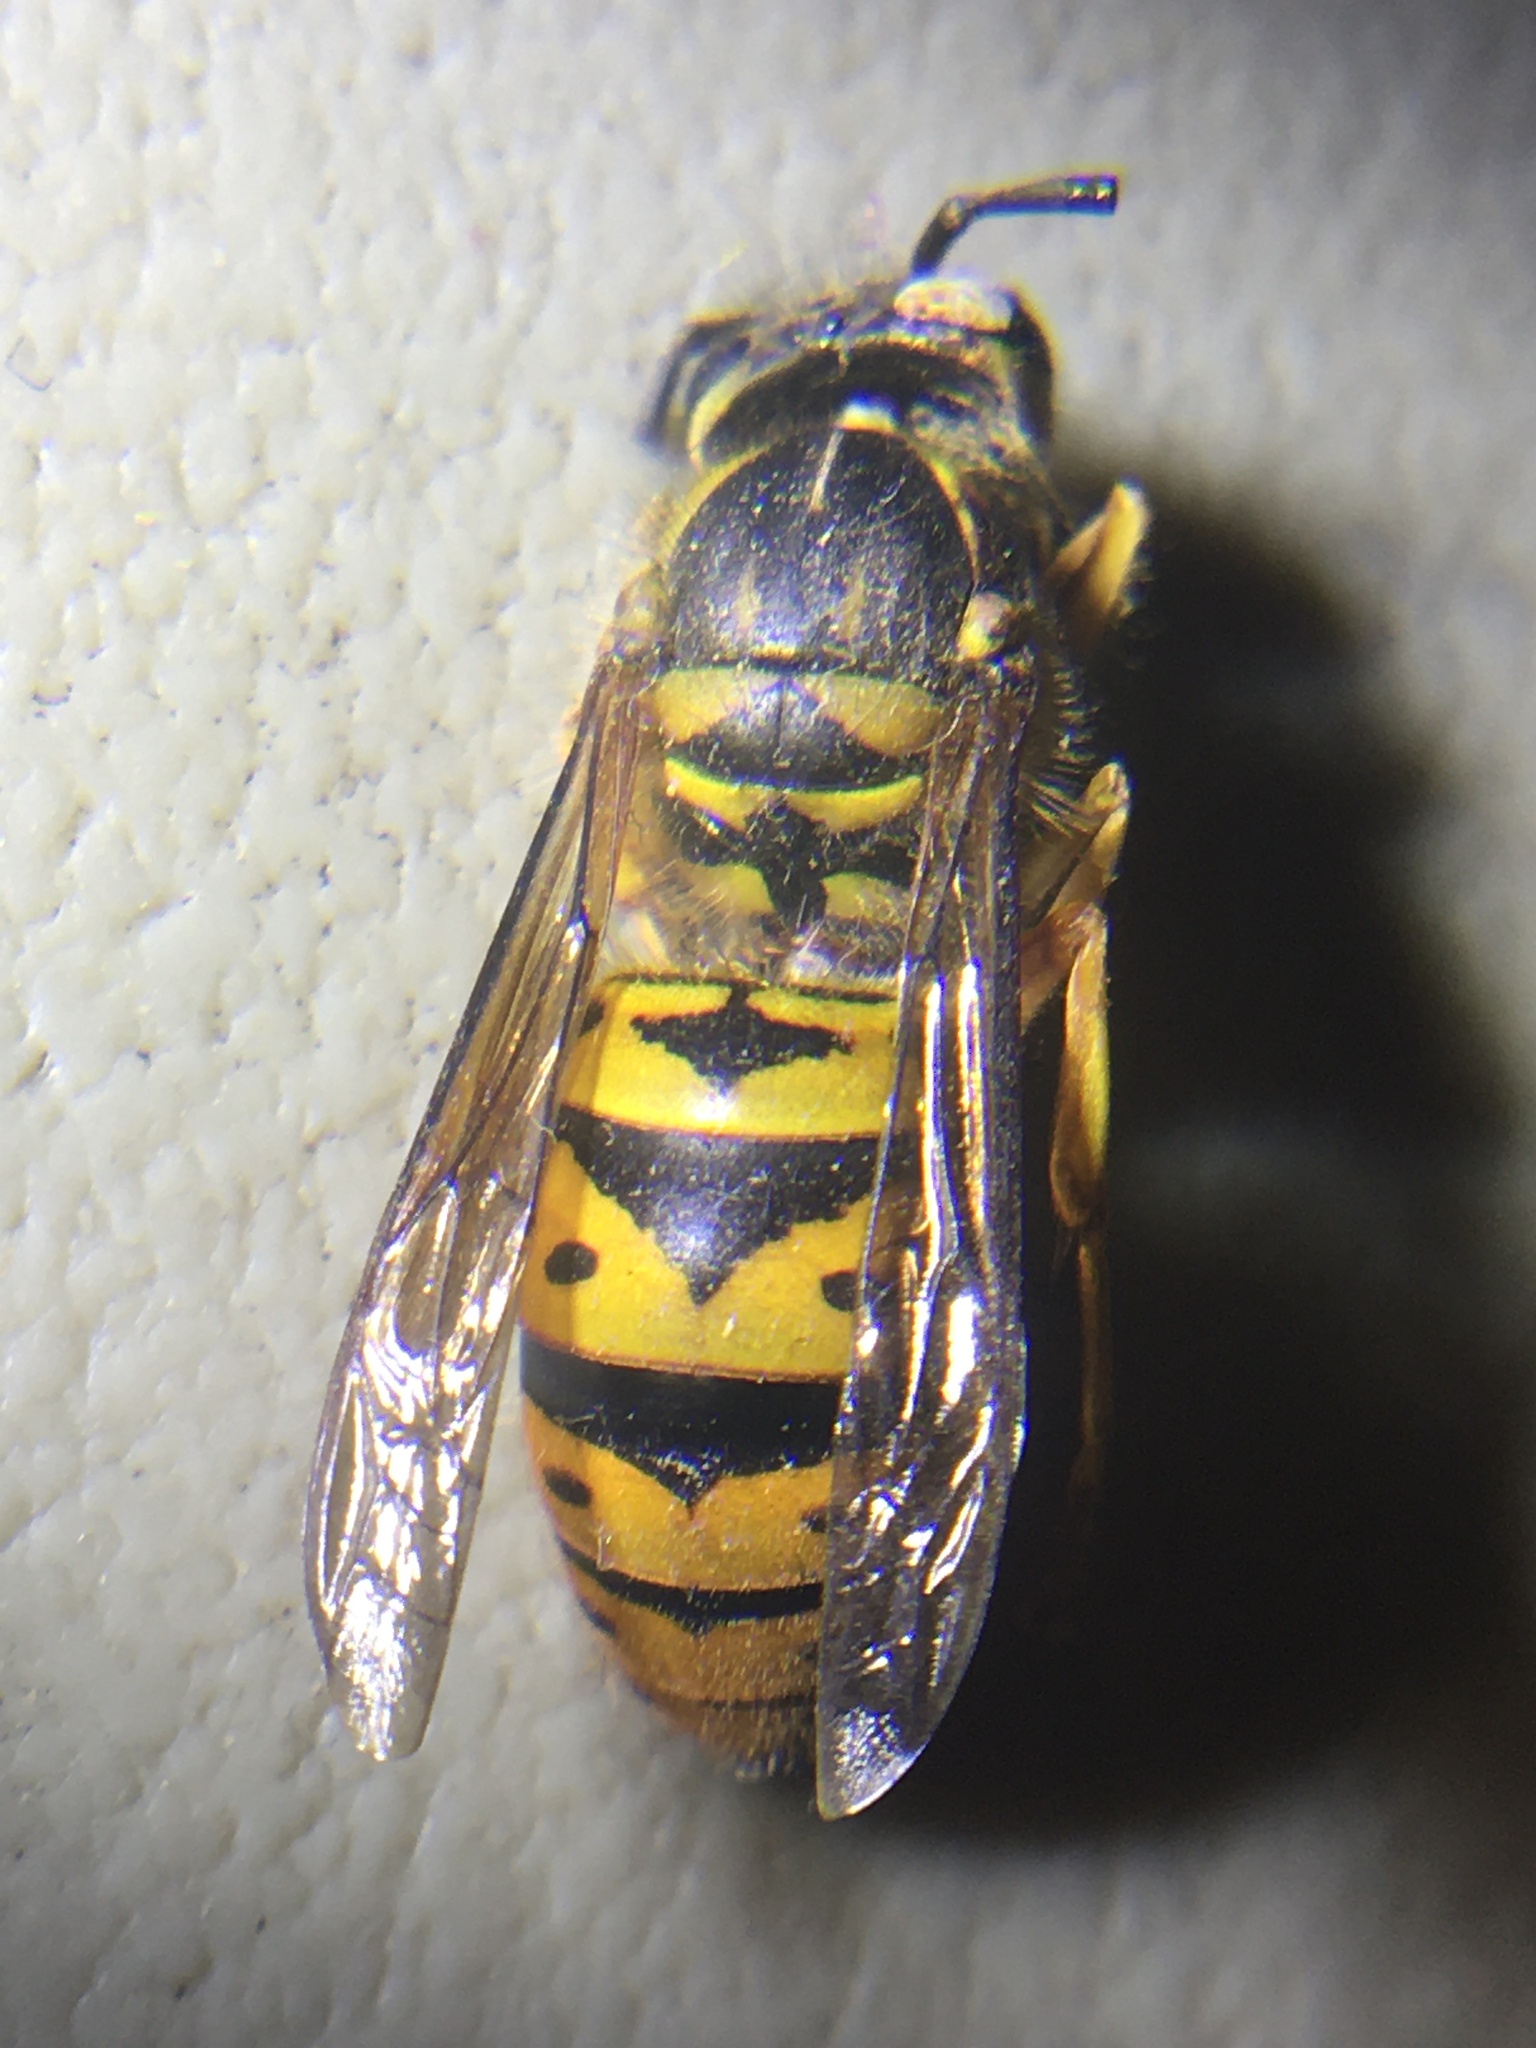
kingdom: Animalia
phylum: Arthropoda
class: Insecta
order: Hymenoptera
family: Vespidae
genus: Vespula
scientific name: Vespula maculifrons
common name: Eastern yellowjacket
